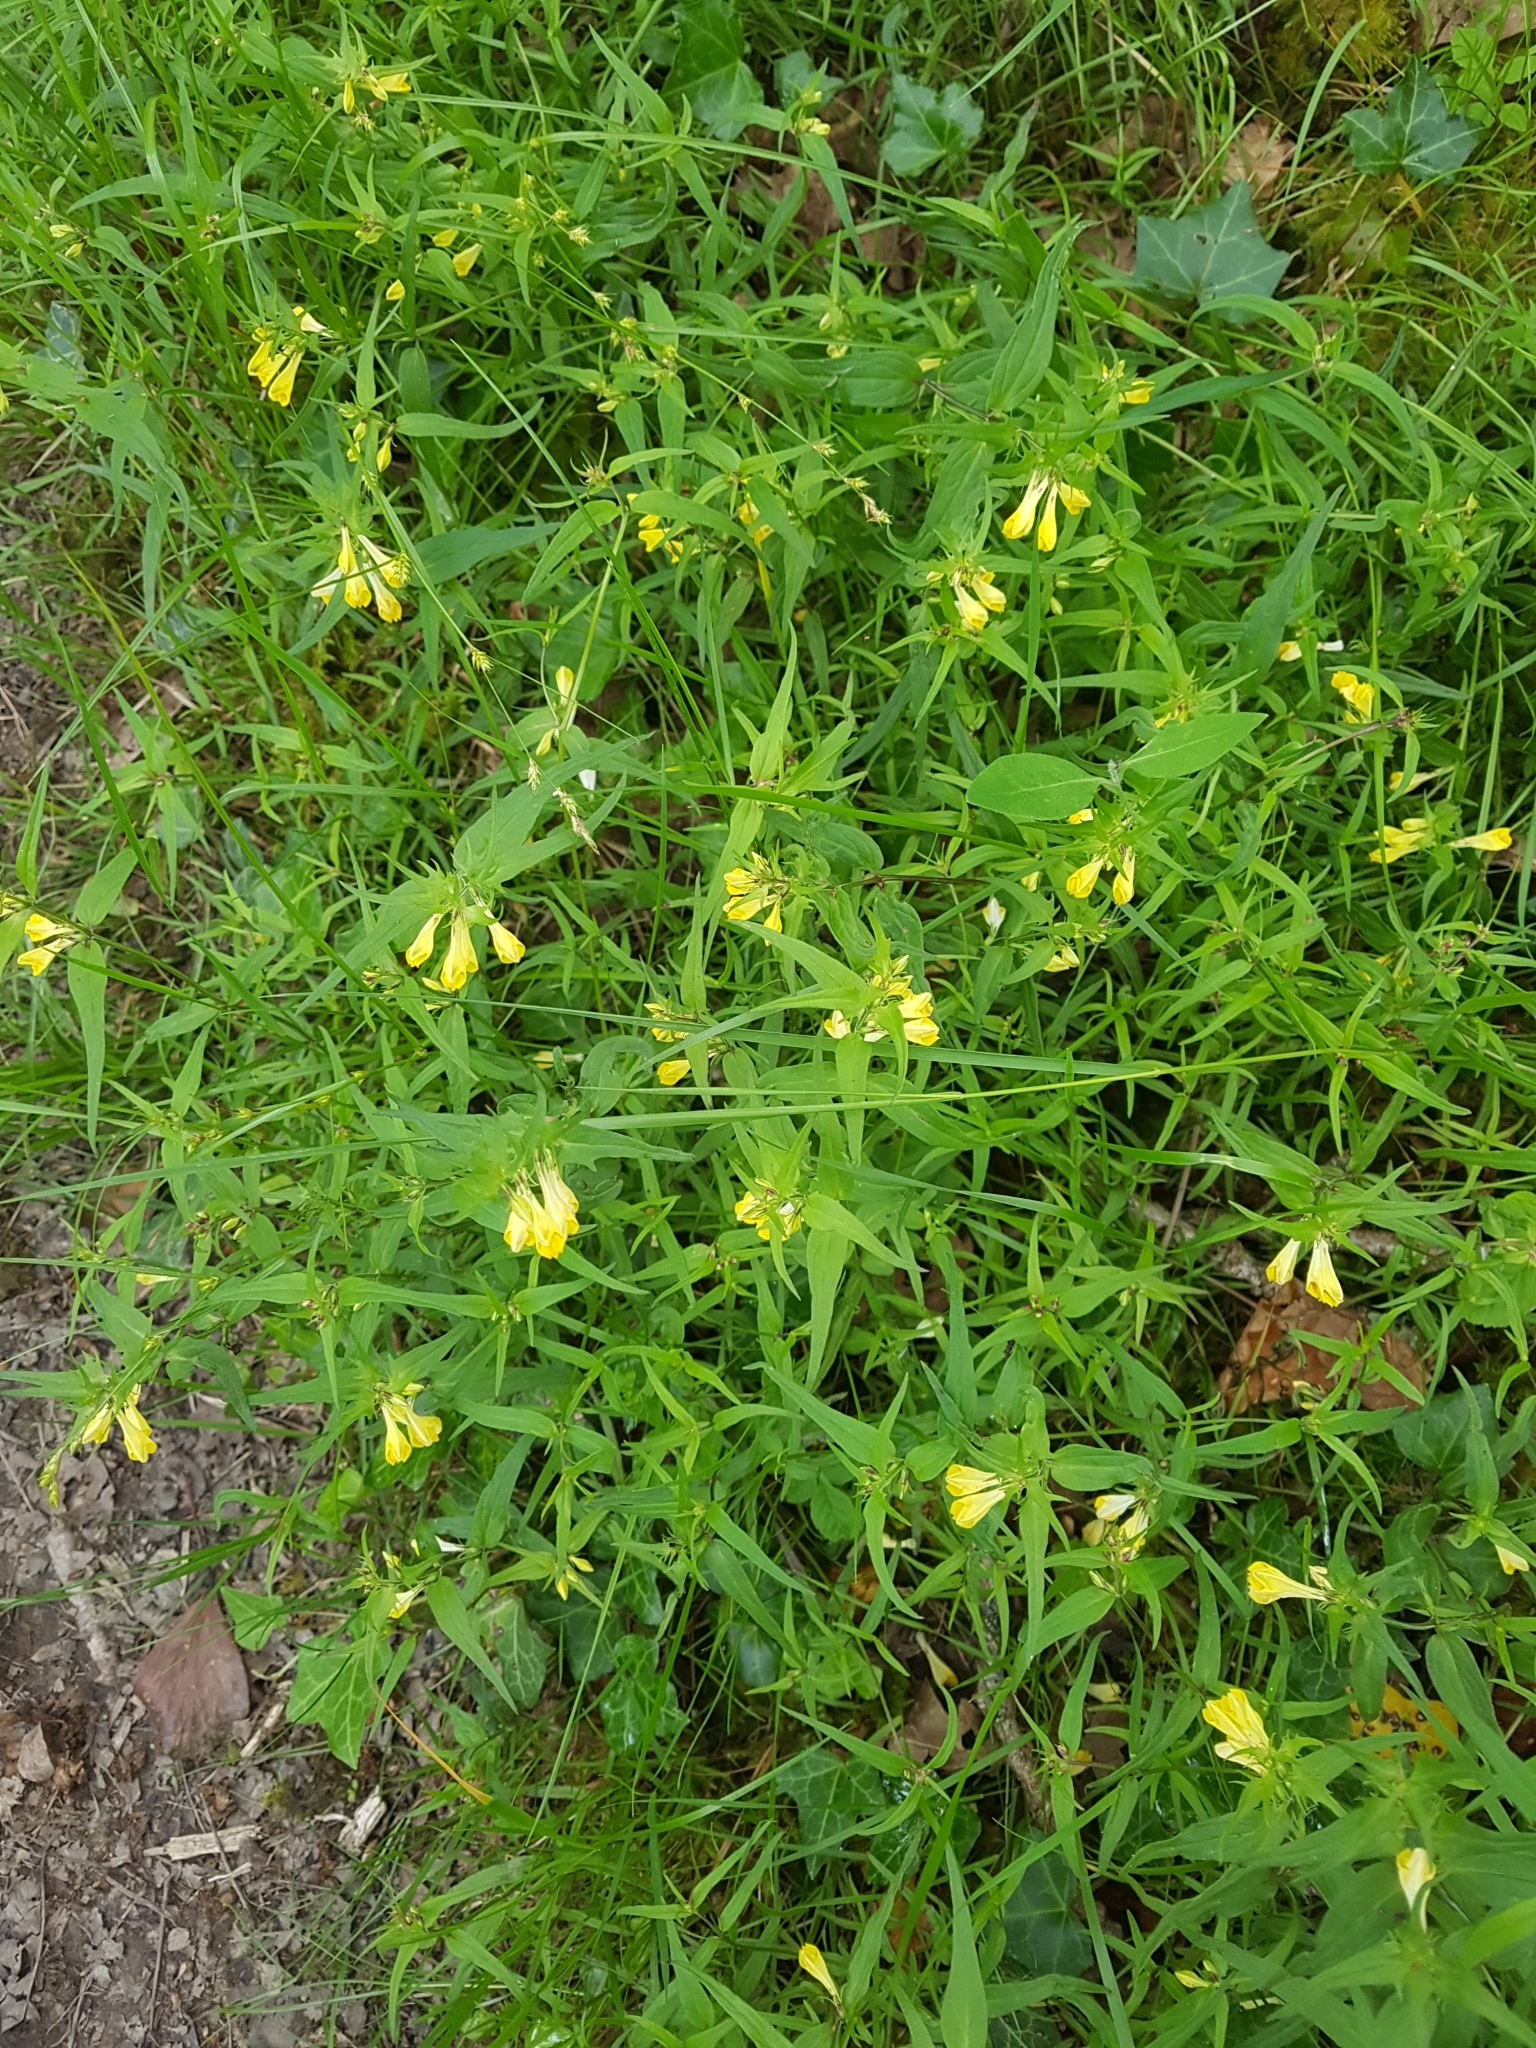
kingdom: Plantae
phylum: Tracheophyta
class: Magnoliopsida
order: Lamiales
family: Orobanchaceae
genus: Melampyrum
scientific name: Melampyrum pratense
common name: Common cow-wheat
